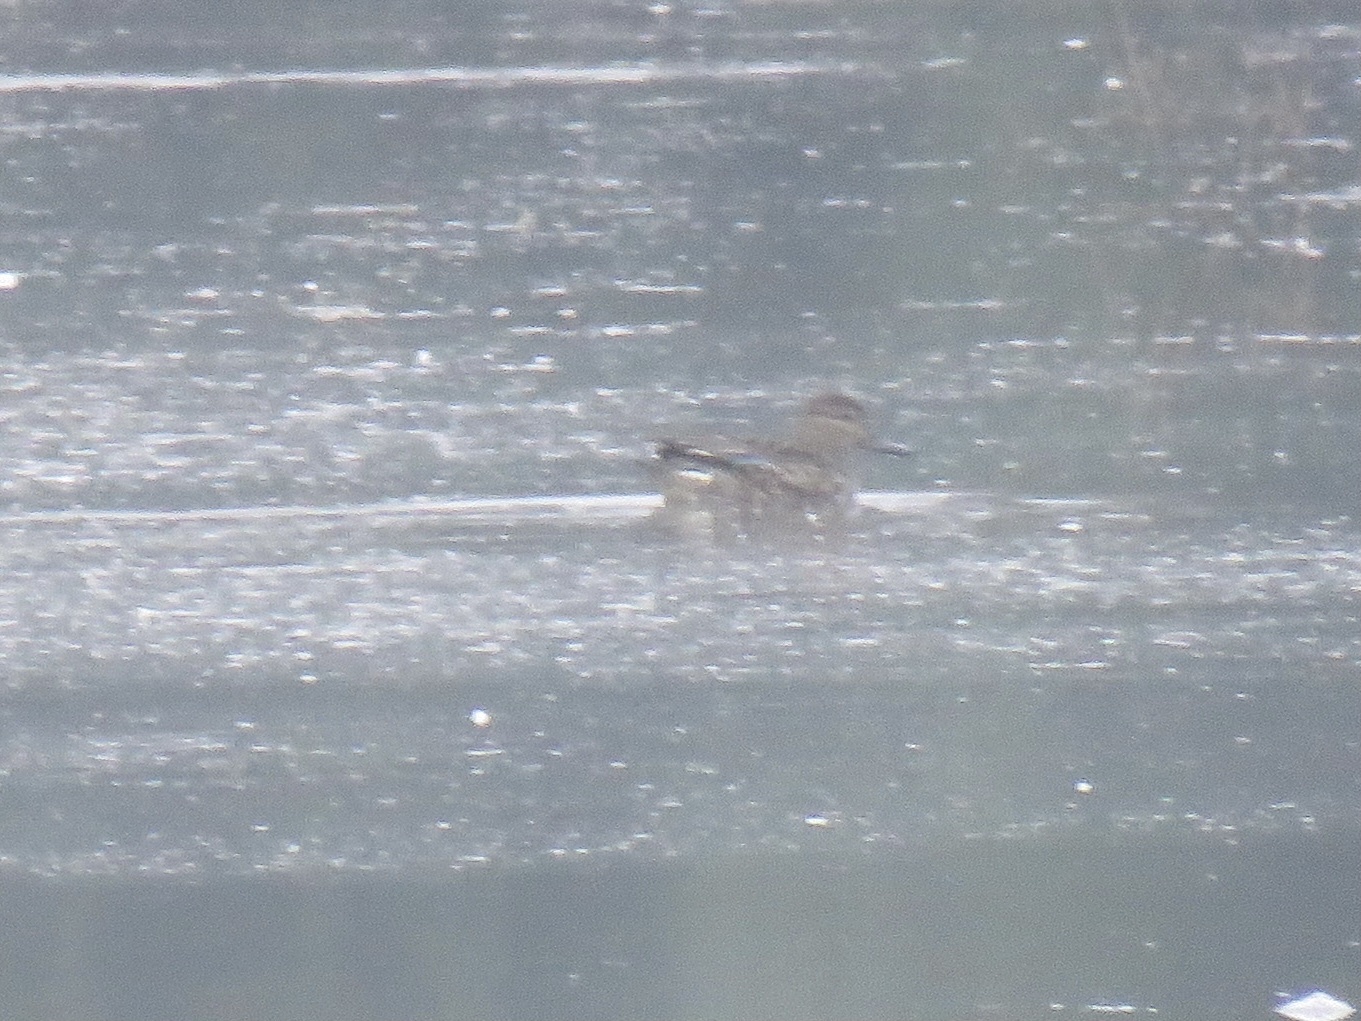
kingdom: Animalia
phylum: Chordata
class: Aves
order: Anseriformes
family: Anatidae
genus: Anas
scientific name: Anas crecca
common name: Eurasian teal
